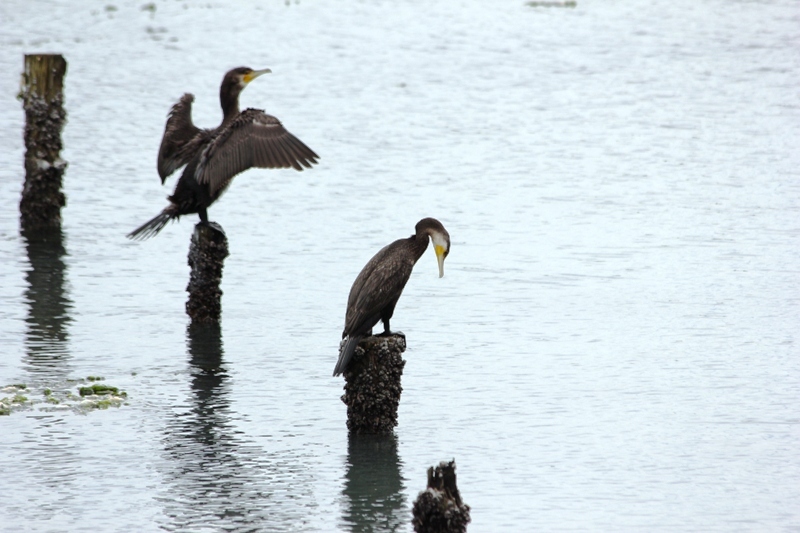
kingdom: Animalia
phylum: Chordata
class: Aves
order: Suliformes
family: Phalacrocoracidae
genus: Phalacrocorax
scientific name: Phalacrocorax carbo
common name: Great cormorant
